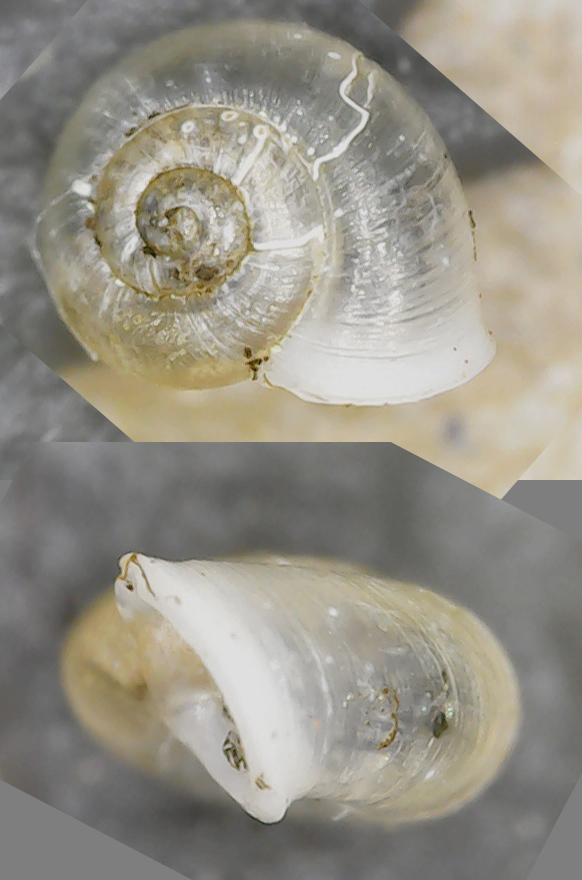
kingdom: Animalia
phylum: Mollusca
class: Gastropoda
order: Stylommatophora
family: Valloniidae
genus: Vallonia
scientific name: Vallonia pulchella
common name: Smooth grass snail
